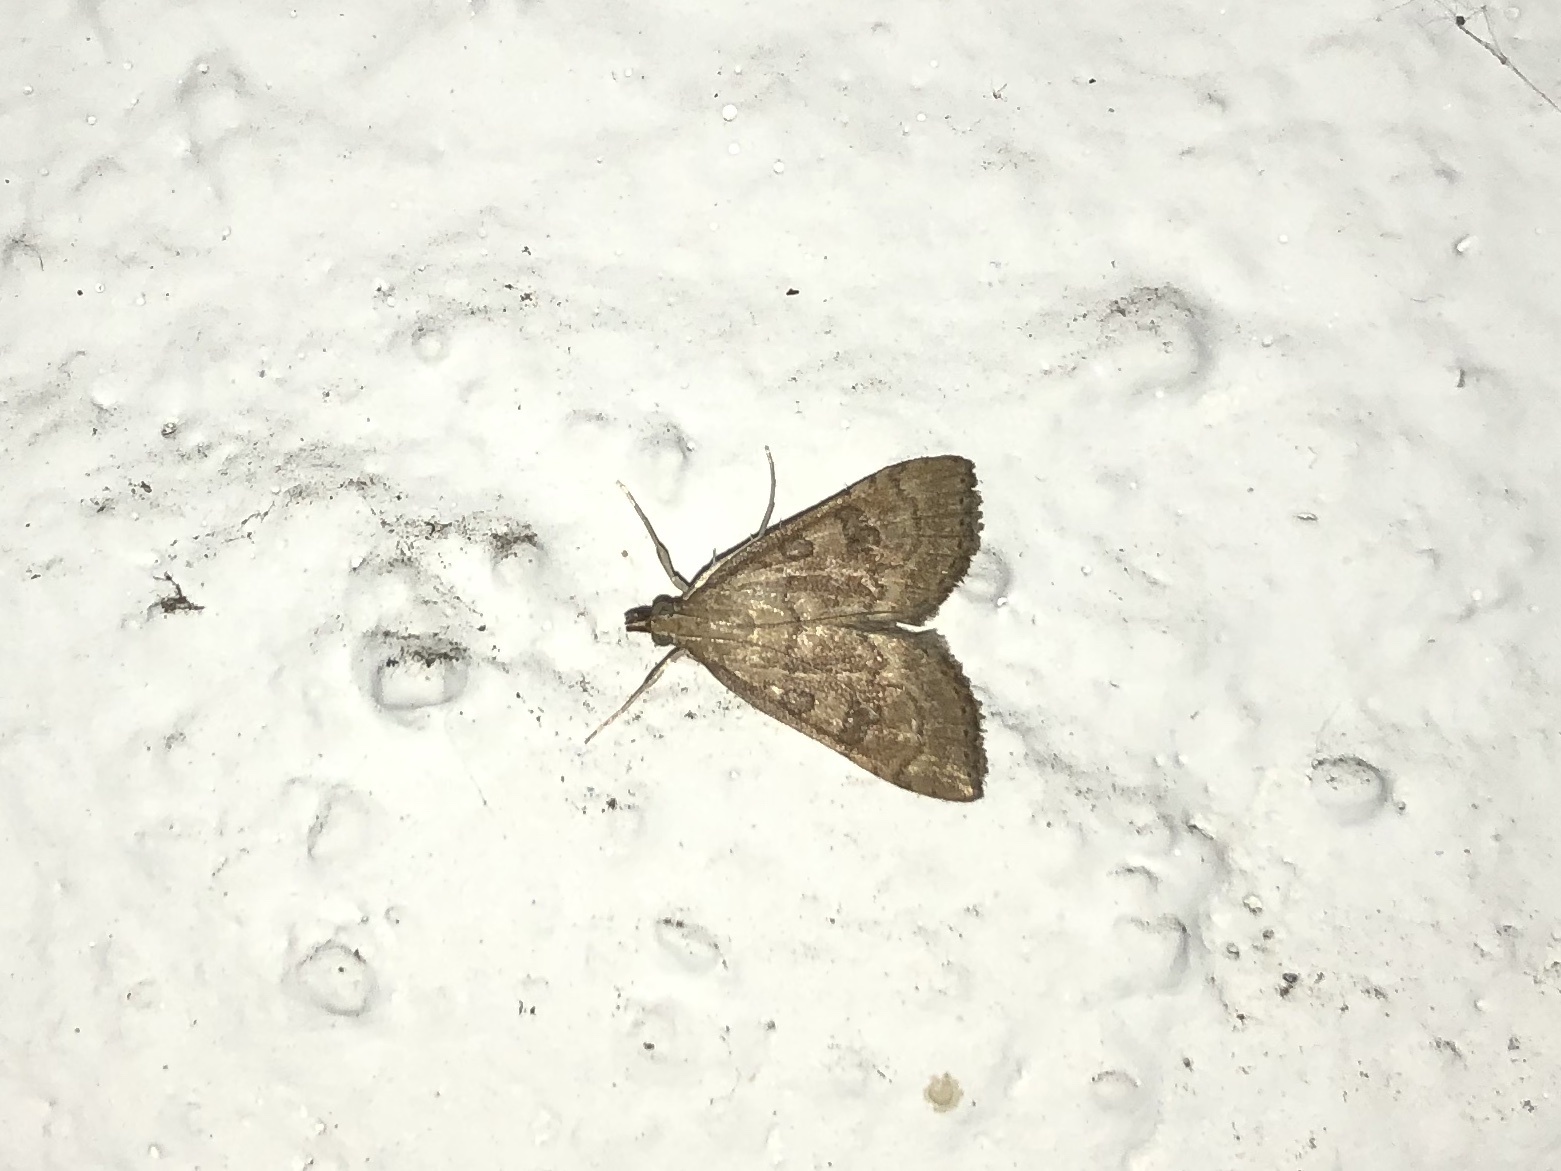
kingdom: Animalia
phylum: Arthropoda
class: Insecta
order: Lepidoptera
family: Crambidae
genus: Udea
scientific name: Udea fulvalis
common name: Fulvous pearl
